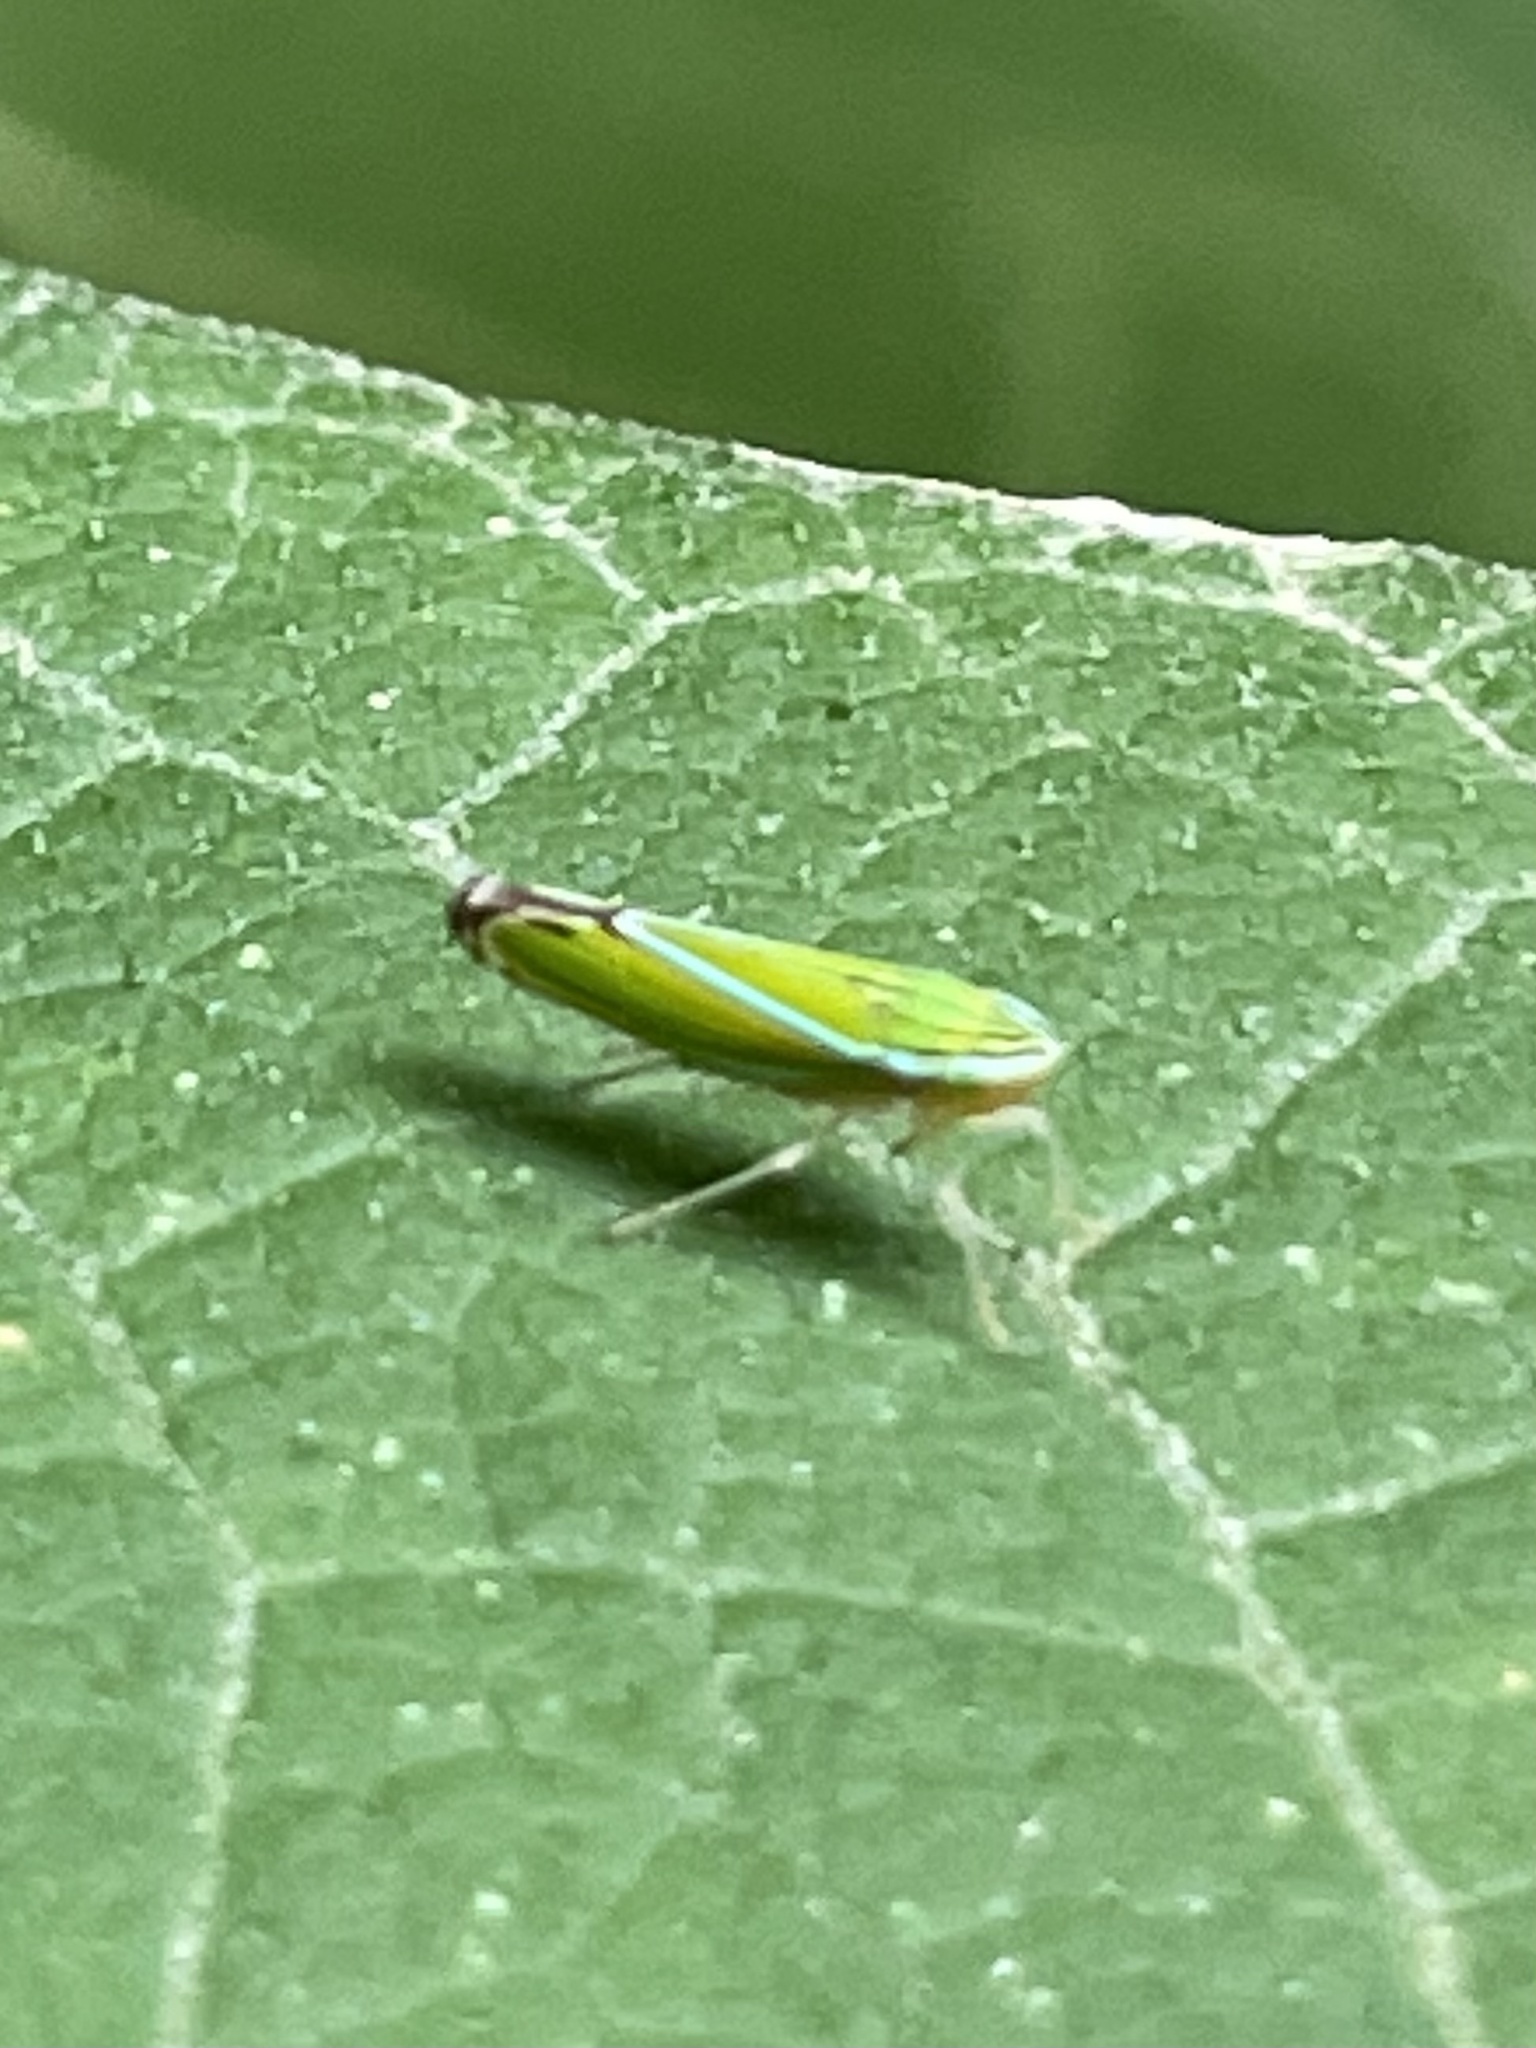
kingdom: Animalia
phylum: Arthropoda
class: Insecta
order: Hemiptera
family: Cicadellidae
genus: Sibovia
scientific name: Sibovia occatoria
